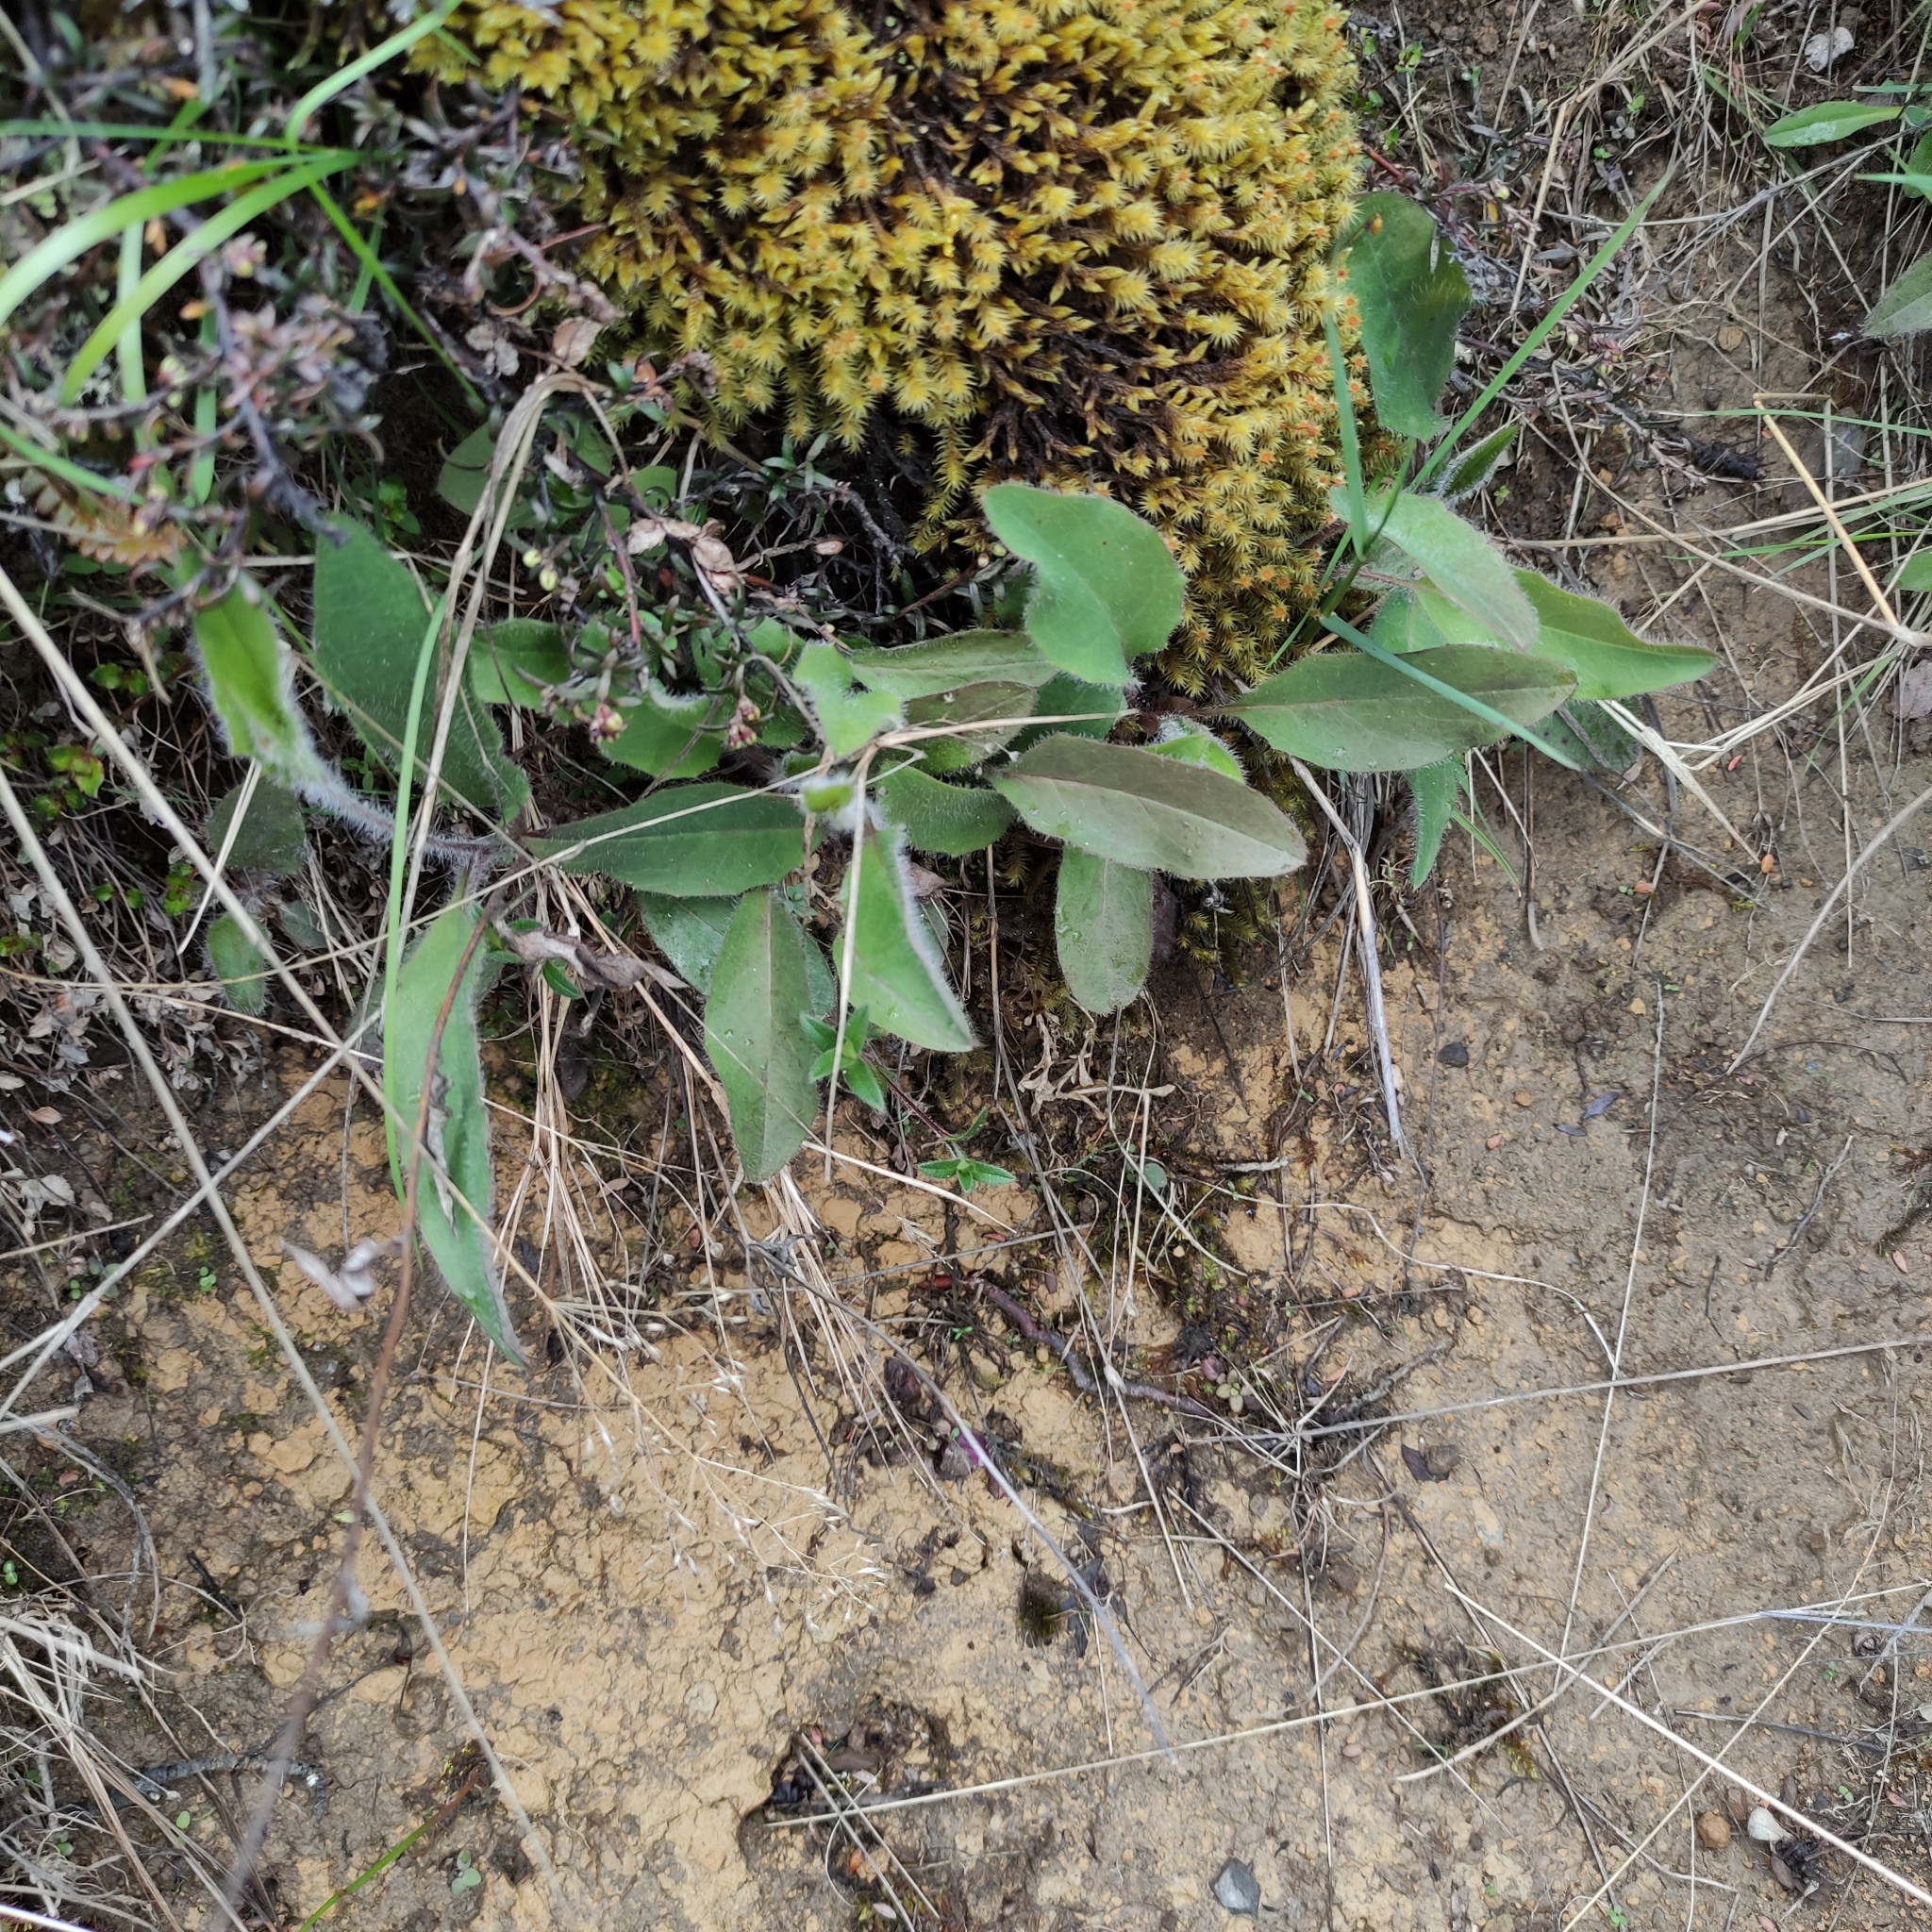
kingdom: Plantae
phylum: Tracheophyta
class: Magnoliopsida
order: Asterales
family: Asteraceae
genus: Hieracium
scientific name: Hieracium lepidulum
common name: Irregular-toothed hawkweed
